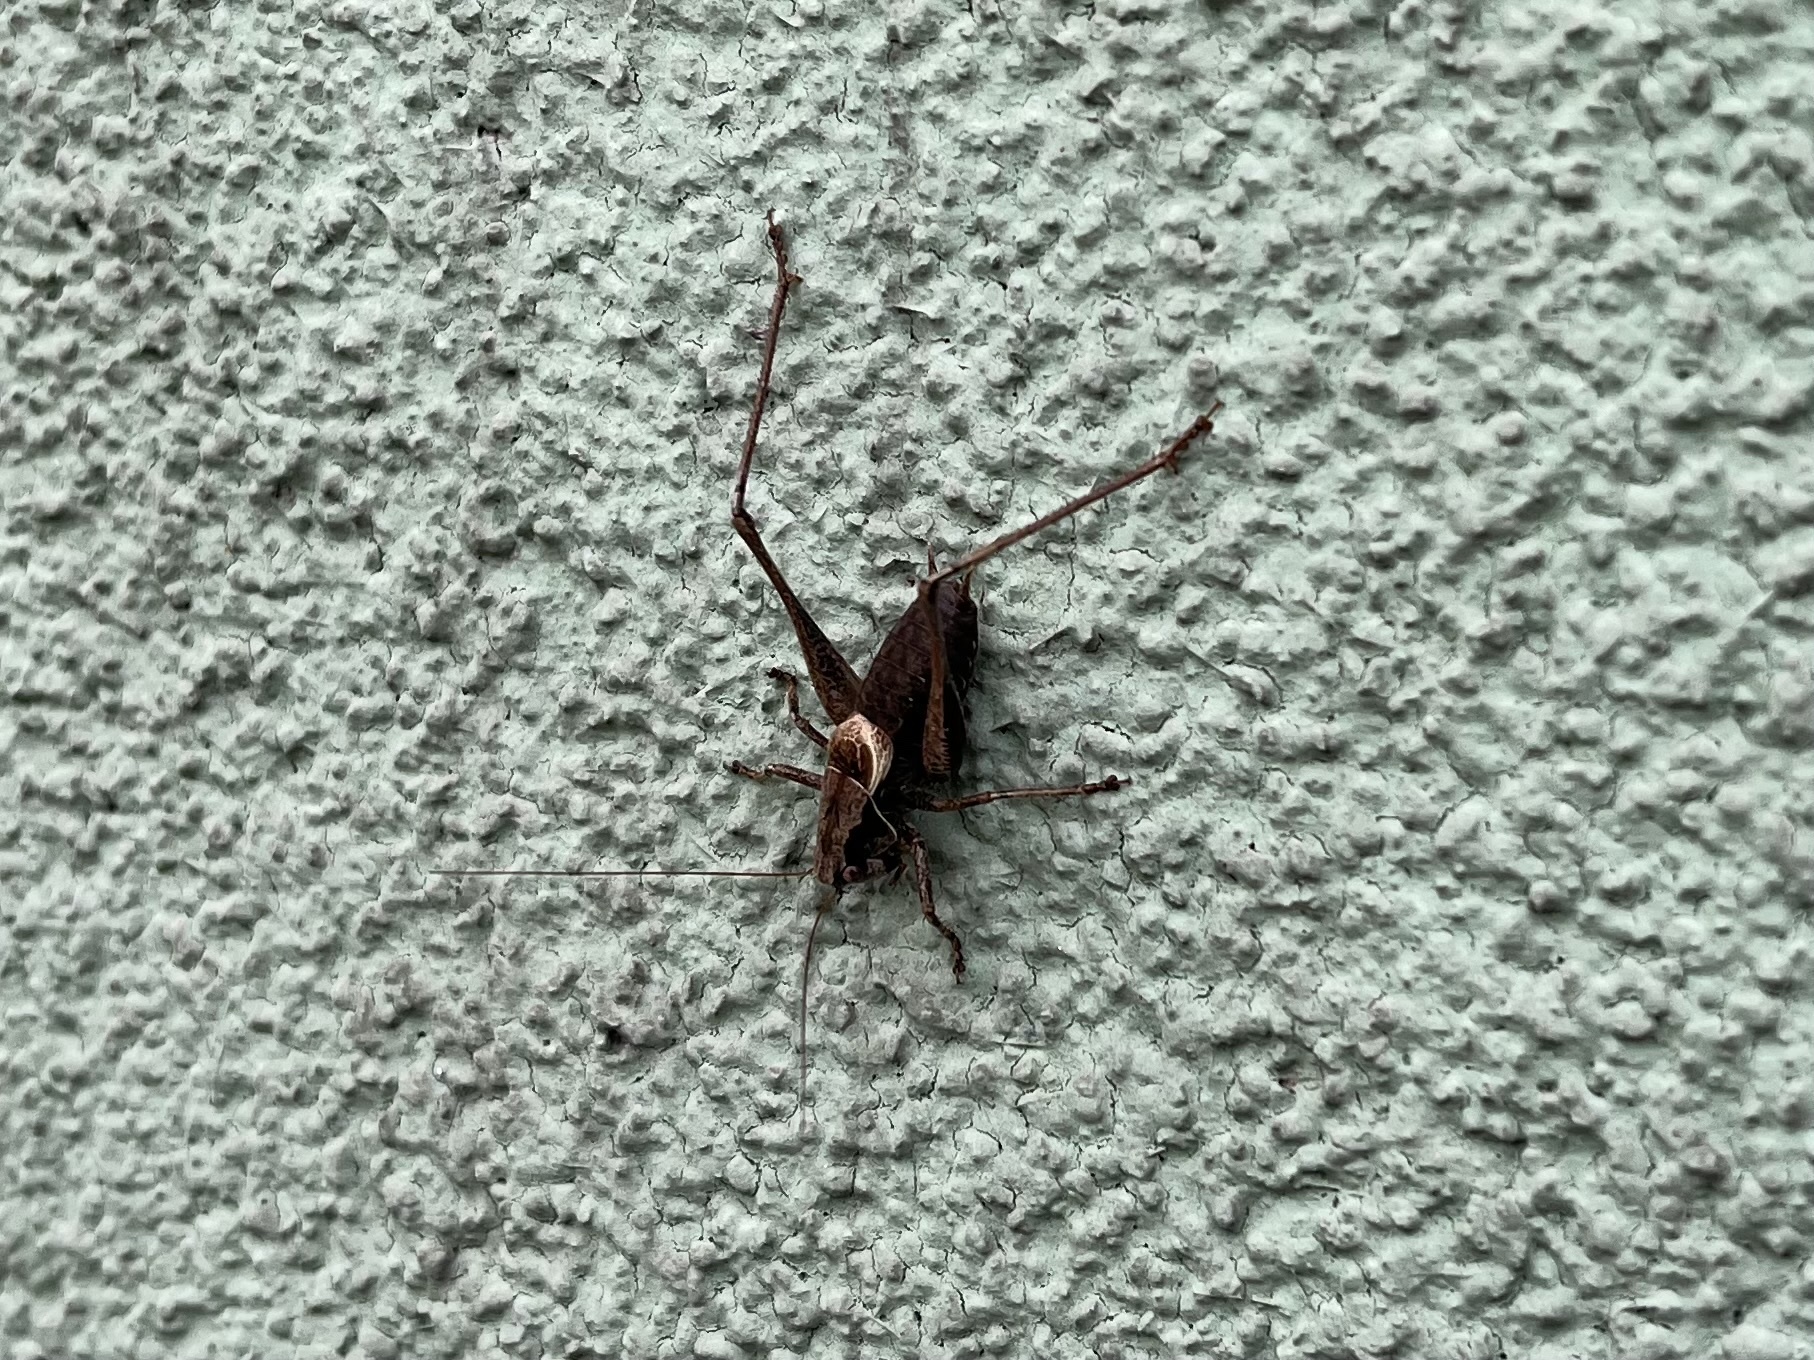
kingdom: Animalia
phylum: Arthropoda
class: Insecta
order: Orthoptera
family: Tettigoniidae
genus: Pholidoptera
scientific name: Pholidoptera griseoaptera
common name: Dark bush-cricket
